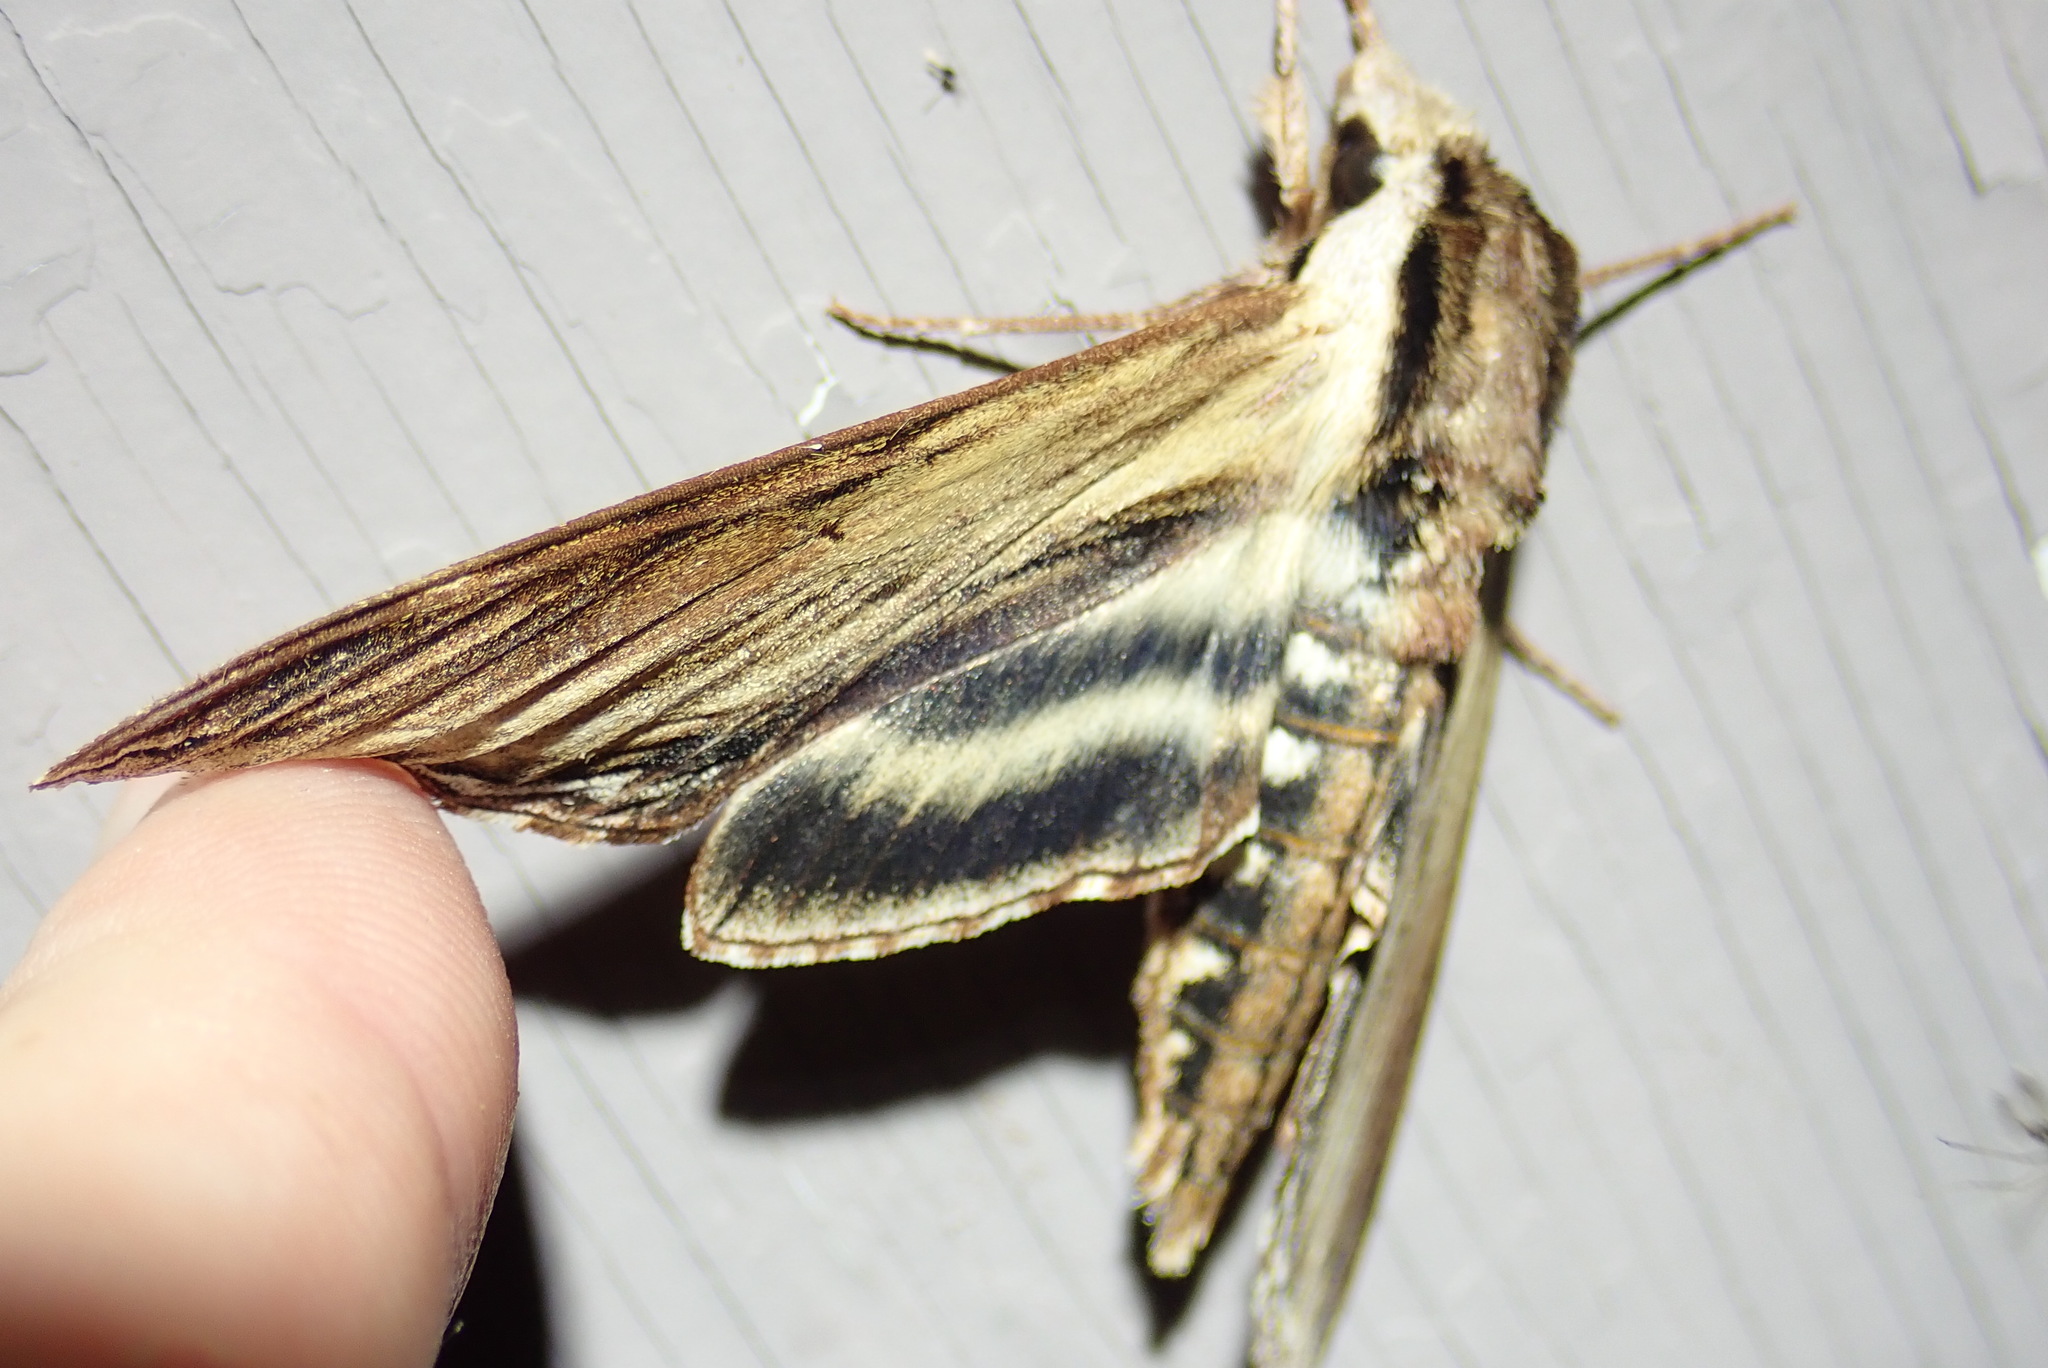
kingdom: Animalia
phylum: Arthropoda
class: Insecta
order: Lepidoptera
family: Sphingidae
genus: Sphinx
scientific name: Sphinx kalmiae
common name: Laurel sphinx
